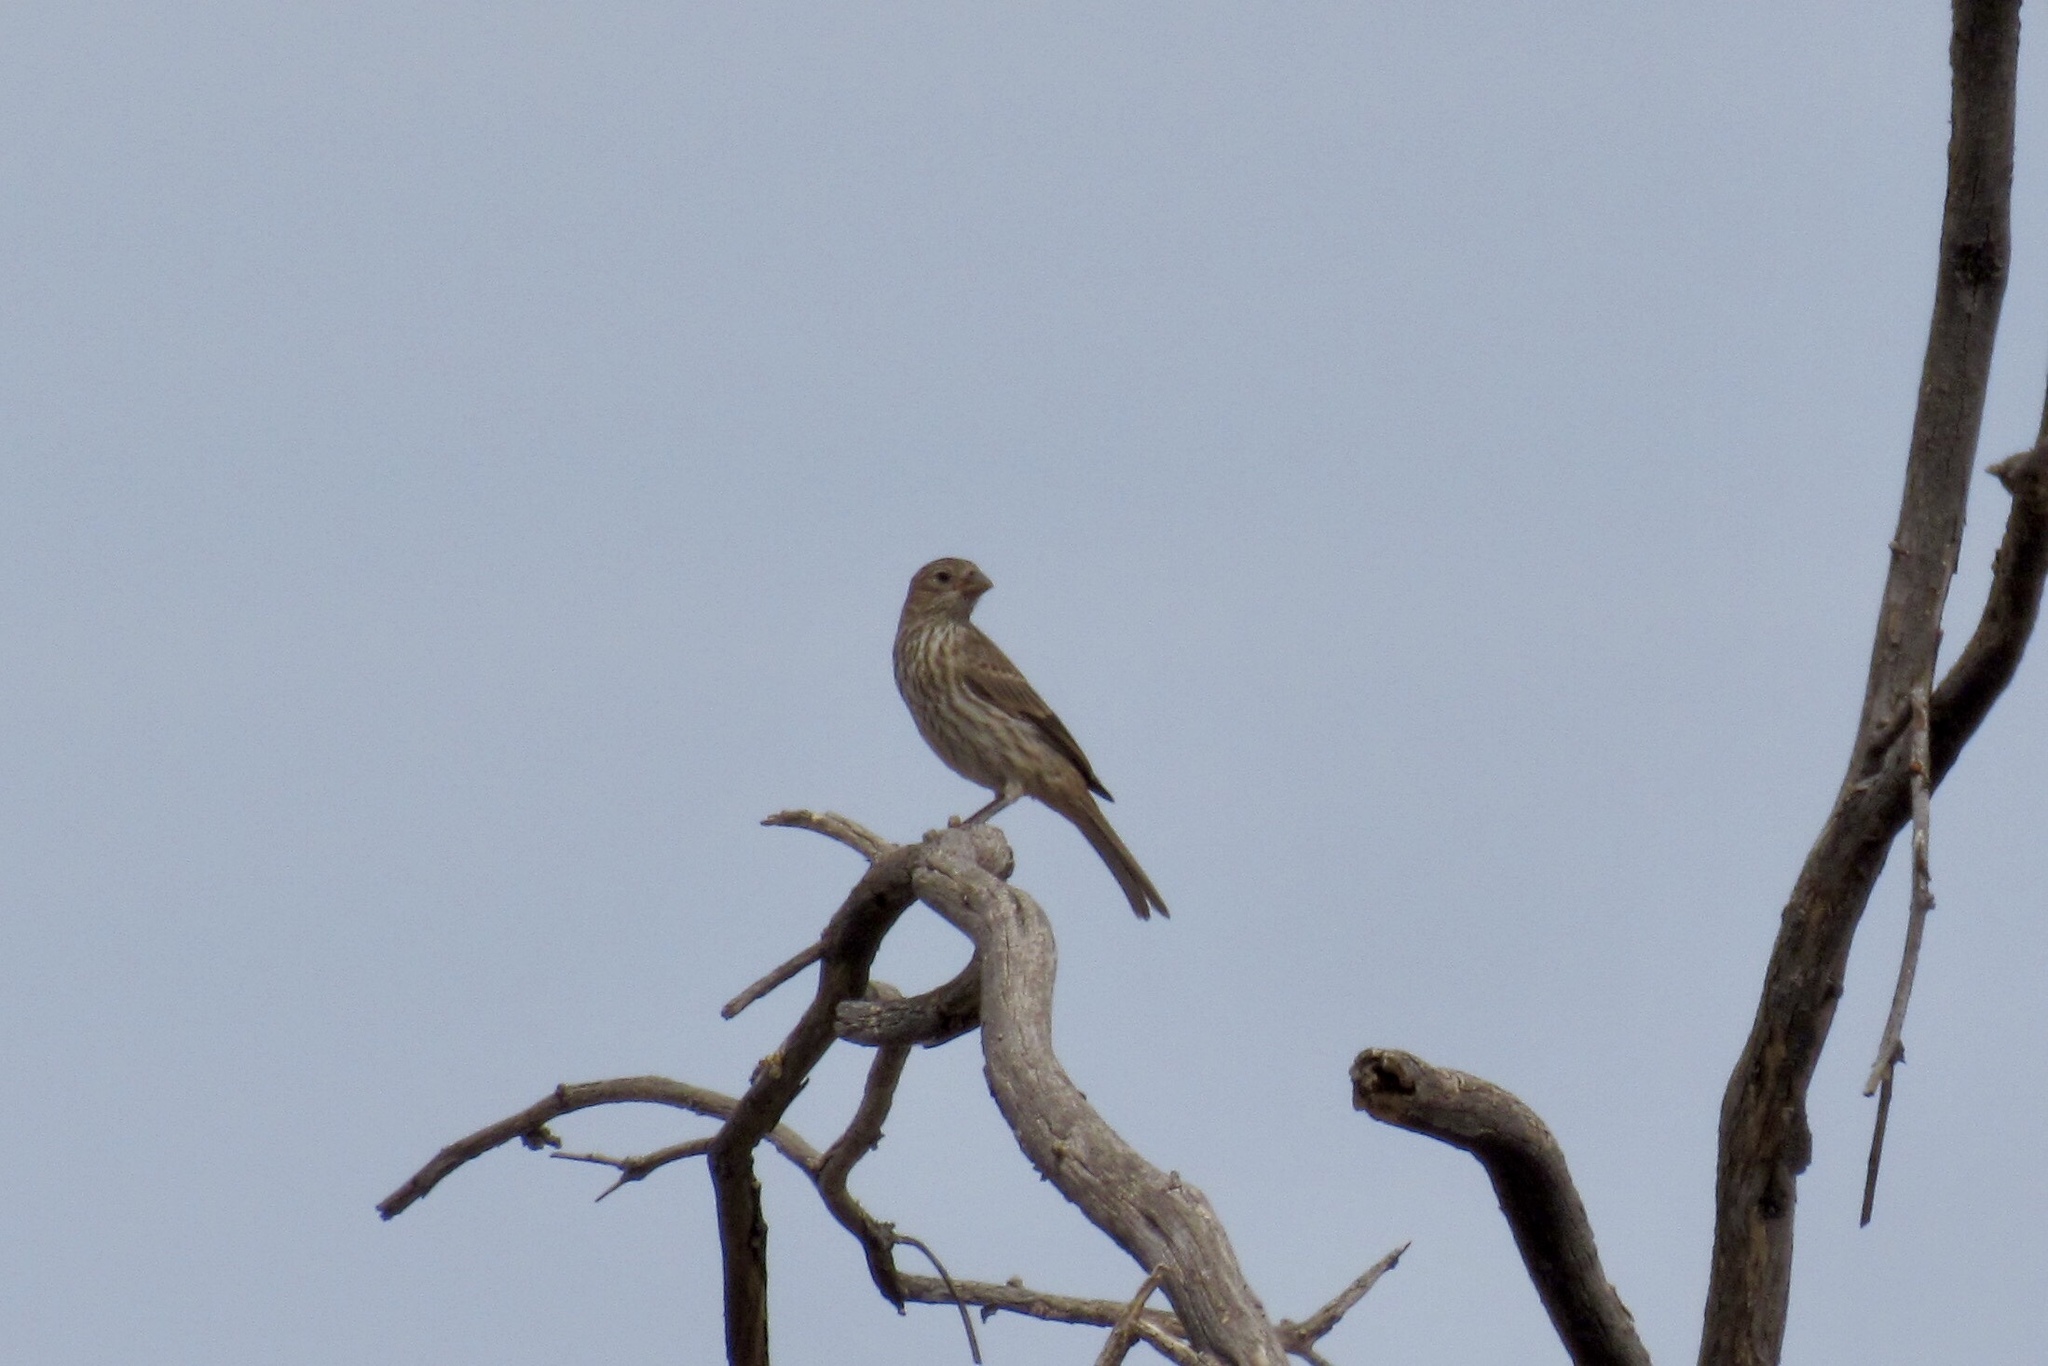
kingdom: Animalia
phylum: Chordata
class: Aves
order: Passeriformes
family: Fringillidae
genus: Haemorhous
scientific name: Haemorhous mexicanus
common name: House finch
